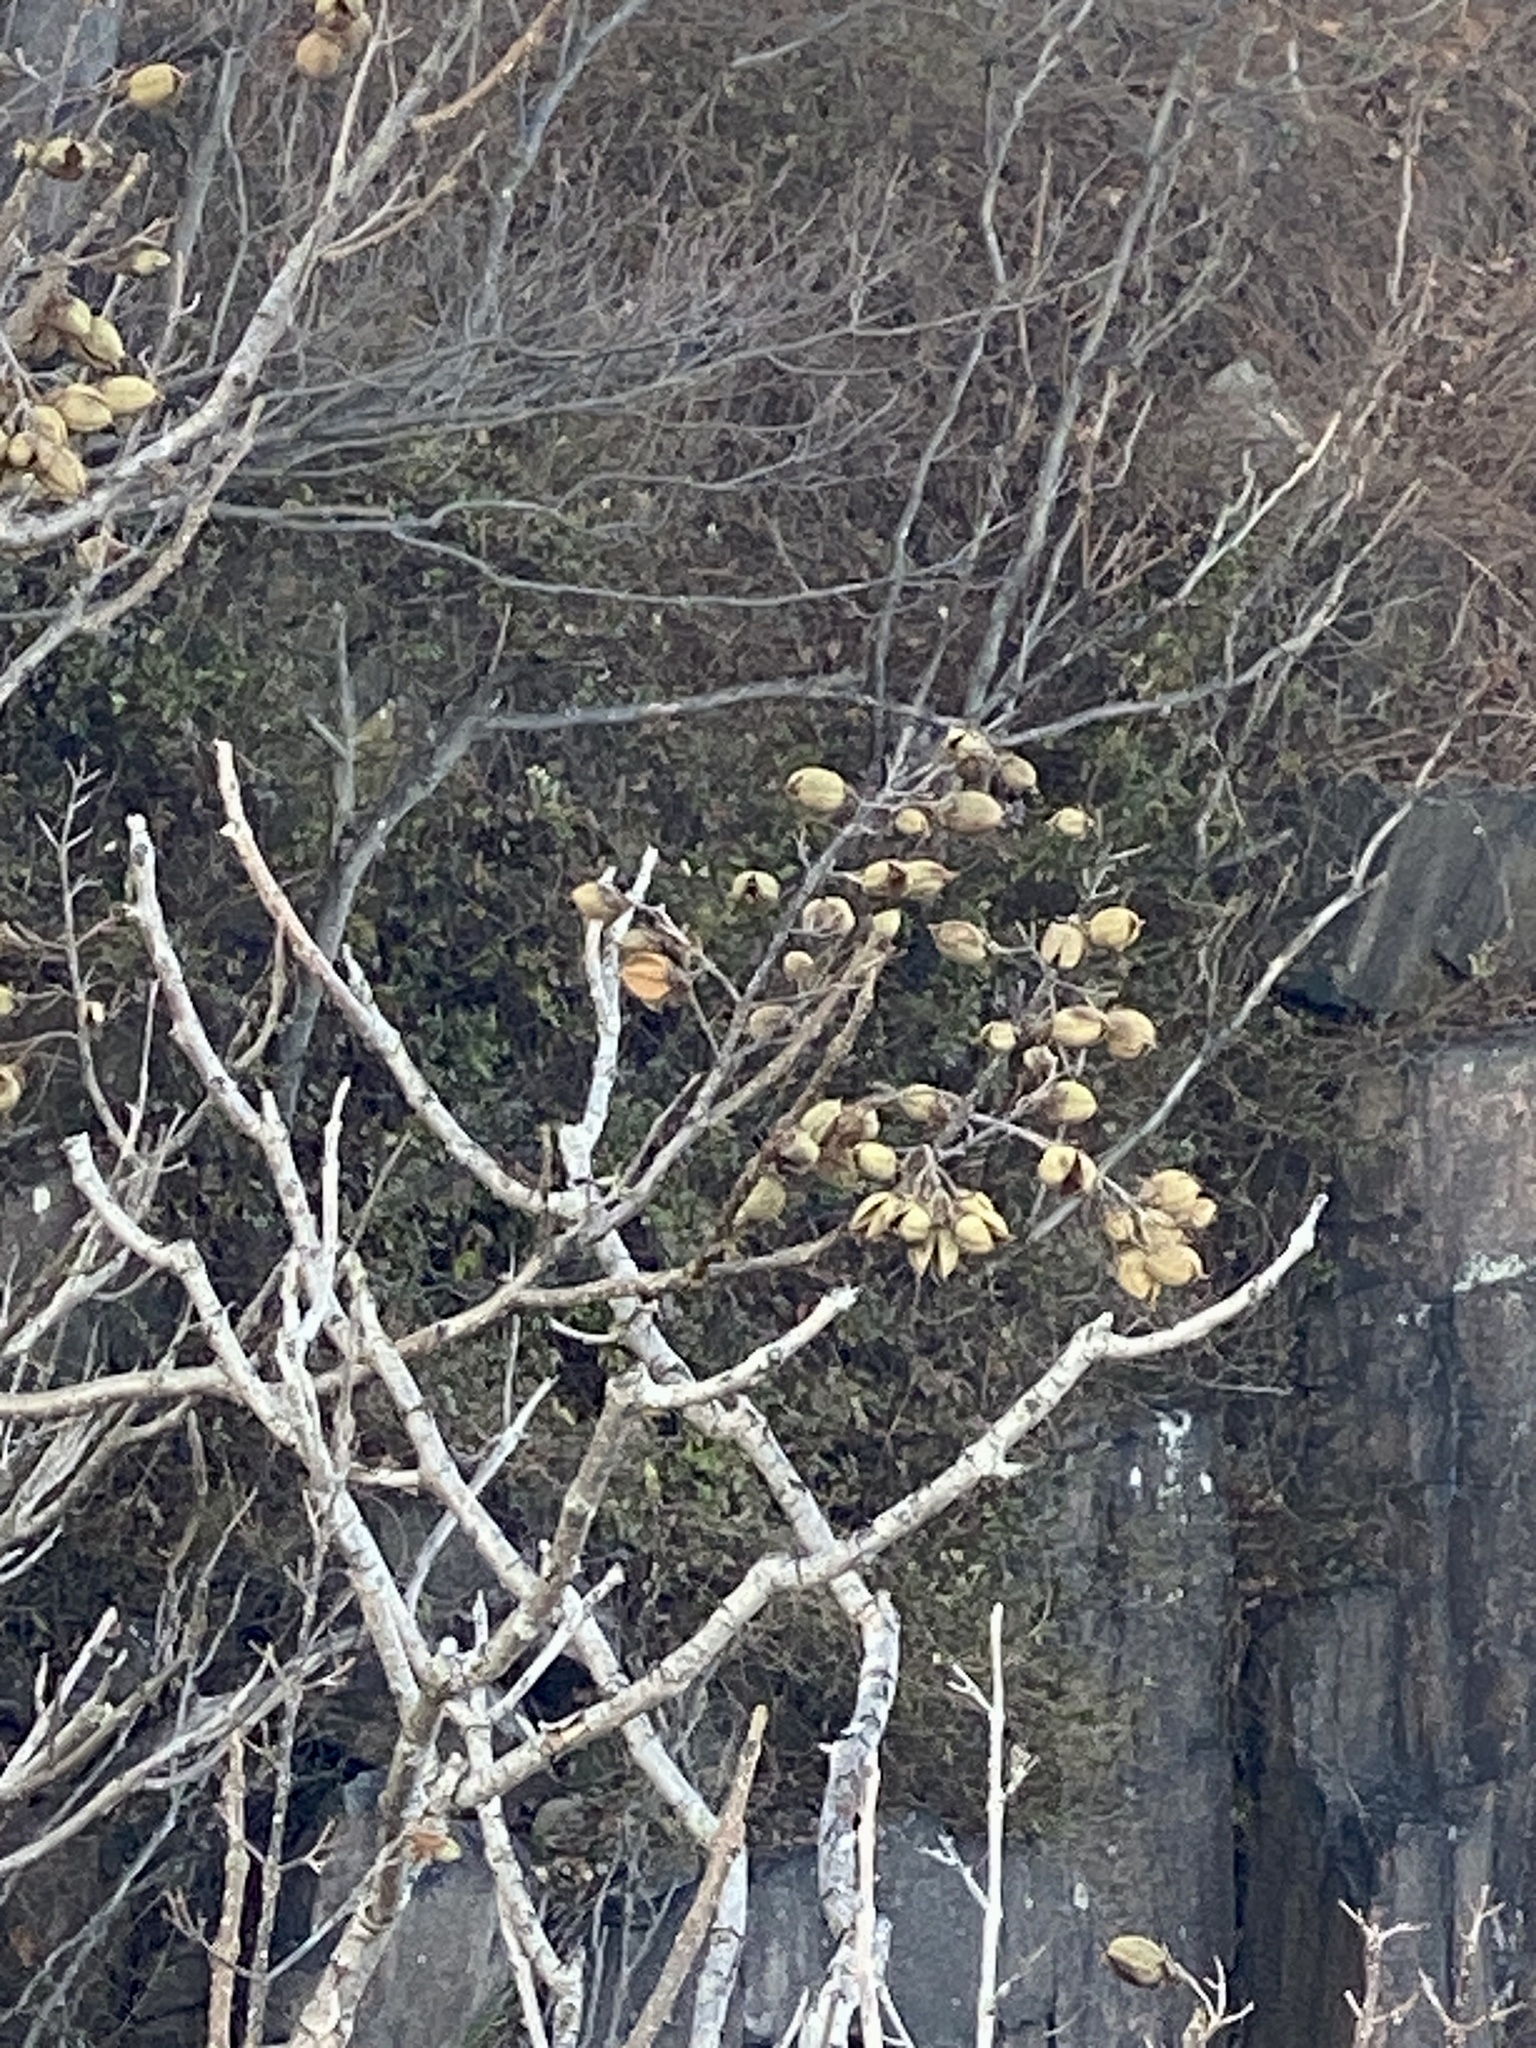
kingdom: Plantae
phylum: Tracheophyta
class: Magnoliopsida
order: Lamiales
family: Paulowniaceae
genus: Paulownia
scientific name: Paulownia tomentosa
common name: Foxglove-tree
